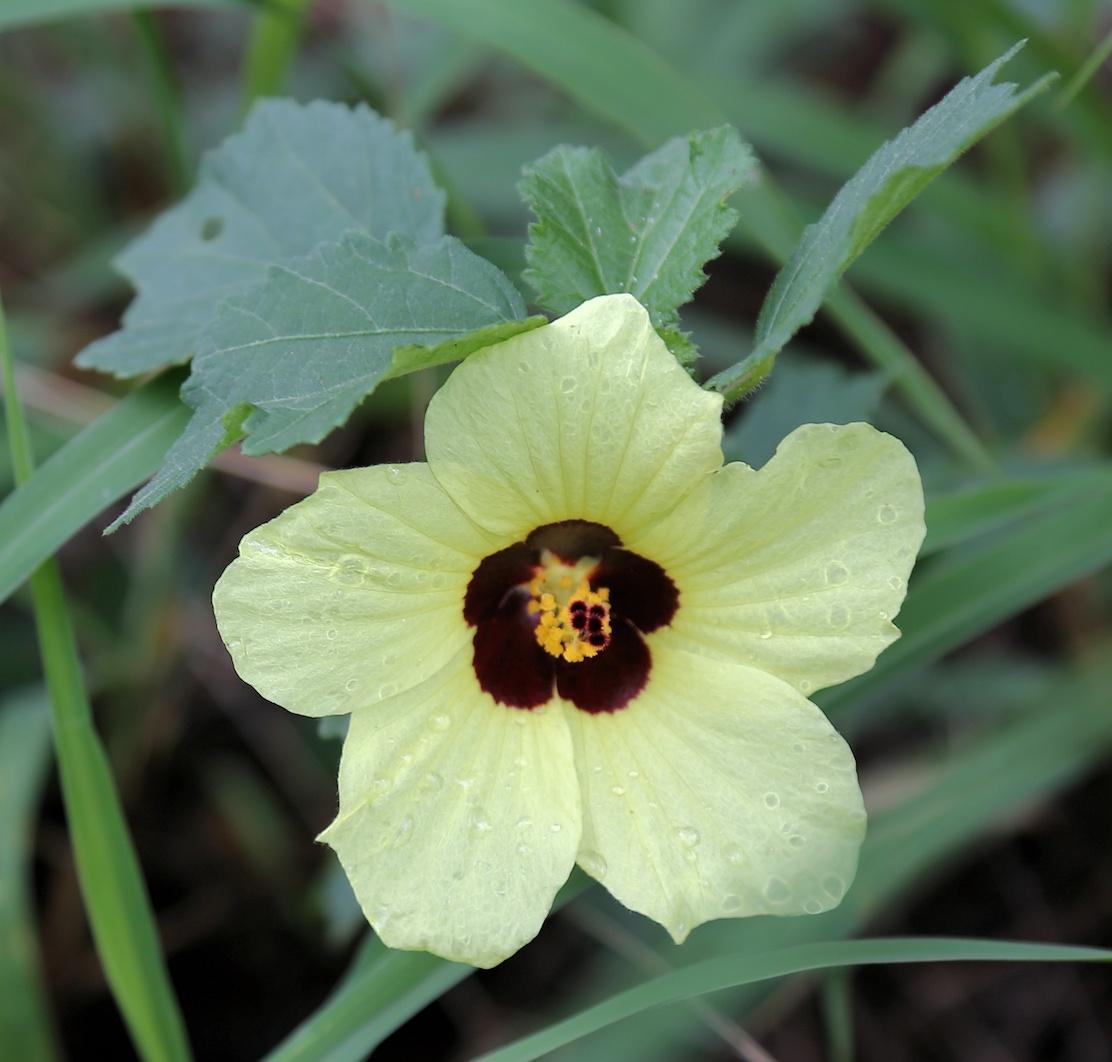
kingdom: Plantae
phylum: Tracheophyta
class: Magnoliopsida
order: Malvales
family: Malvaceae
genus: Hibiscus
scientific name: Hibiscus calyphyllus
